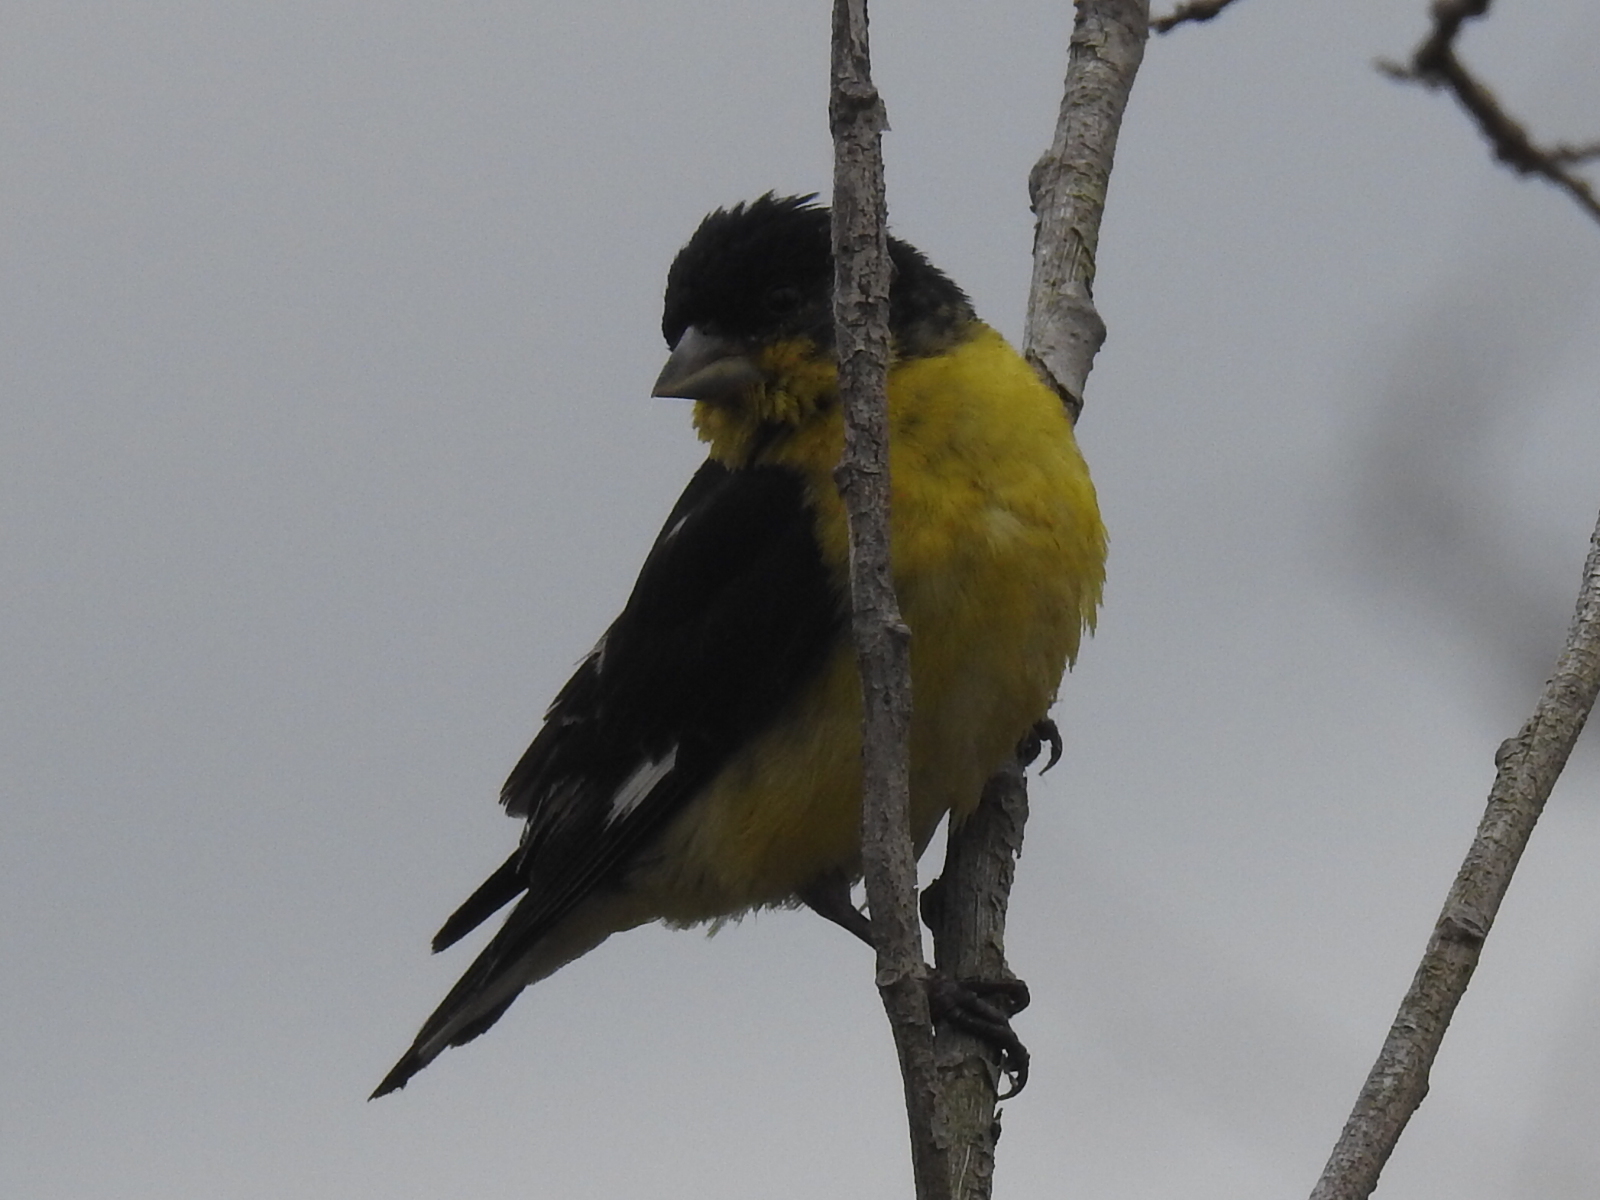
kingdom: Animalia
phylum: Chordata
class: Aves
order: Passeriformes
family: Fringillidae
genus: Spinus
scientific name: Spinus psaltria
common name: Lesser goldfinch
